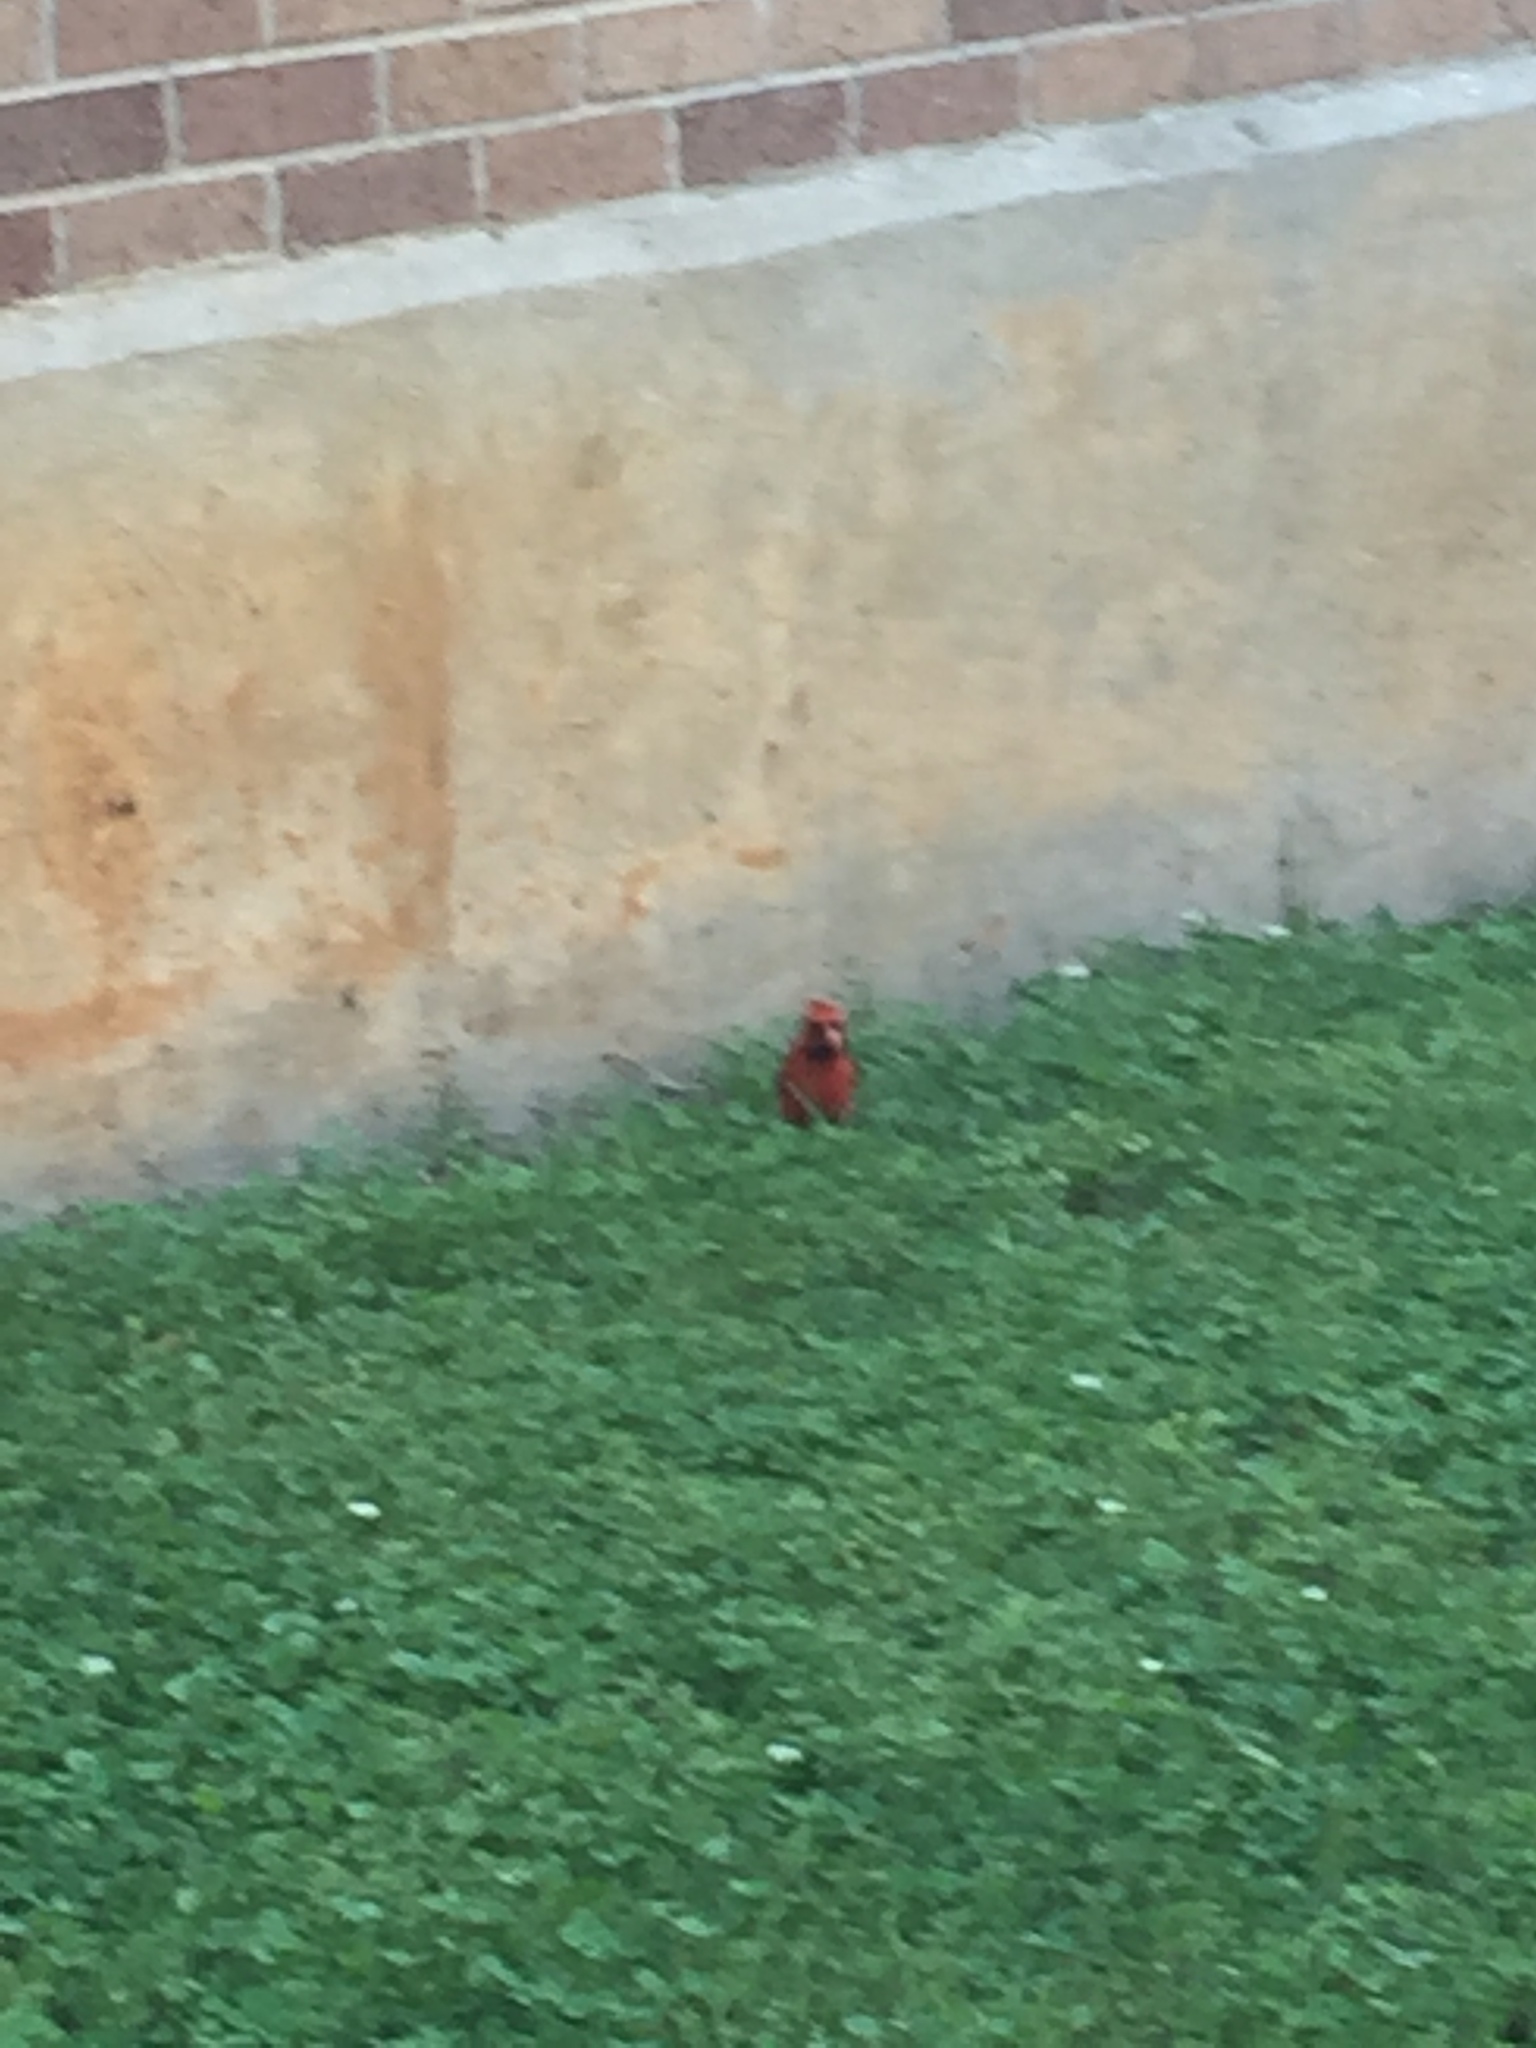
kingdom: Animalia
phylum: Chordata
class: Aves
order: Passeriformes
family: Cardinalidae
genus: Cardinalis
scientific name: Cardinalis cardinalis
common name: Northern cardinal
